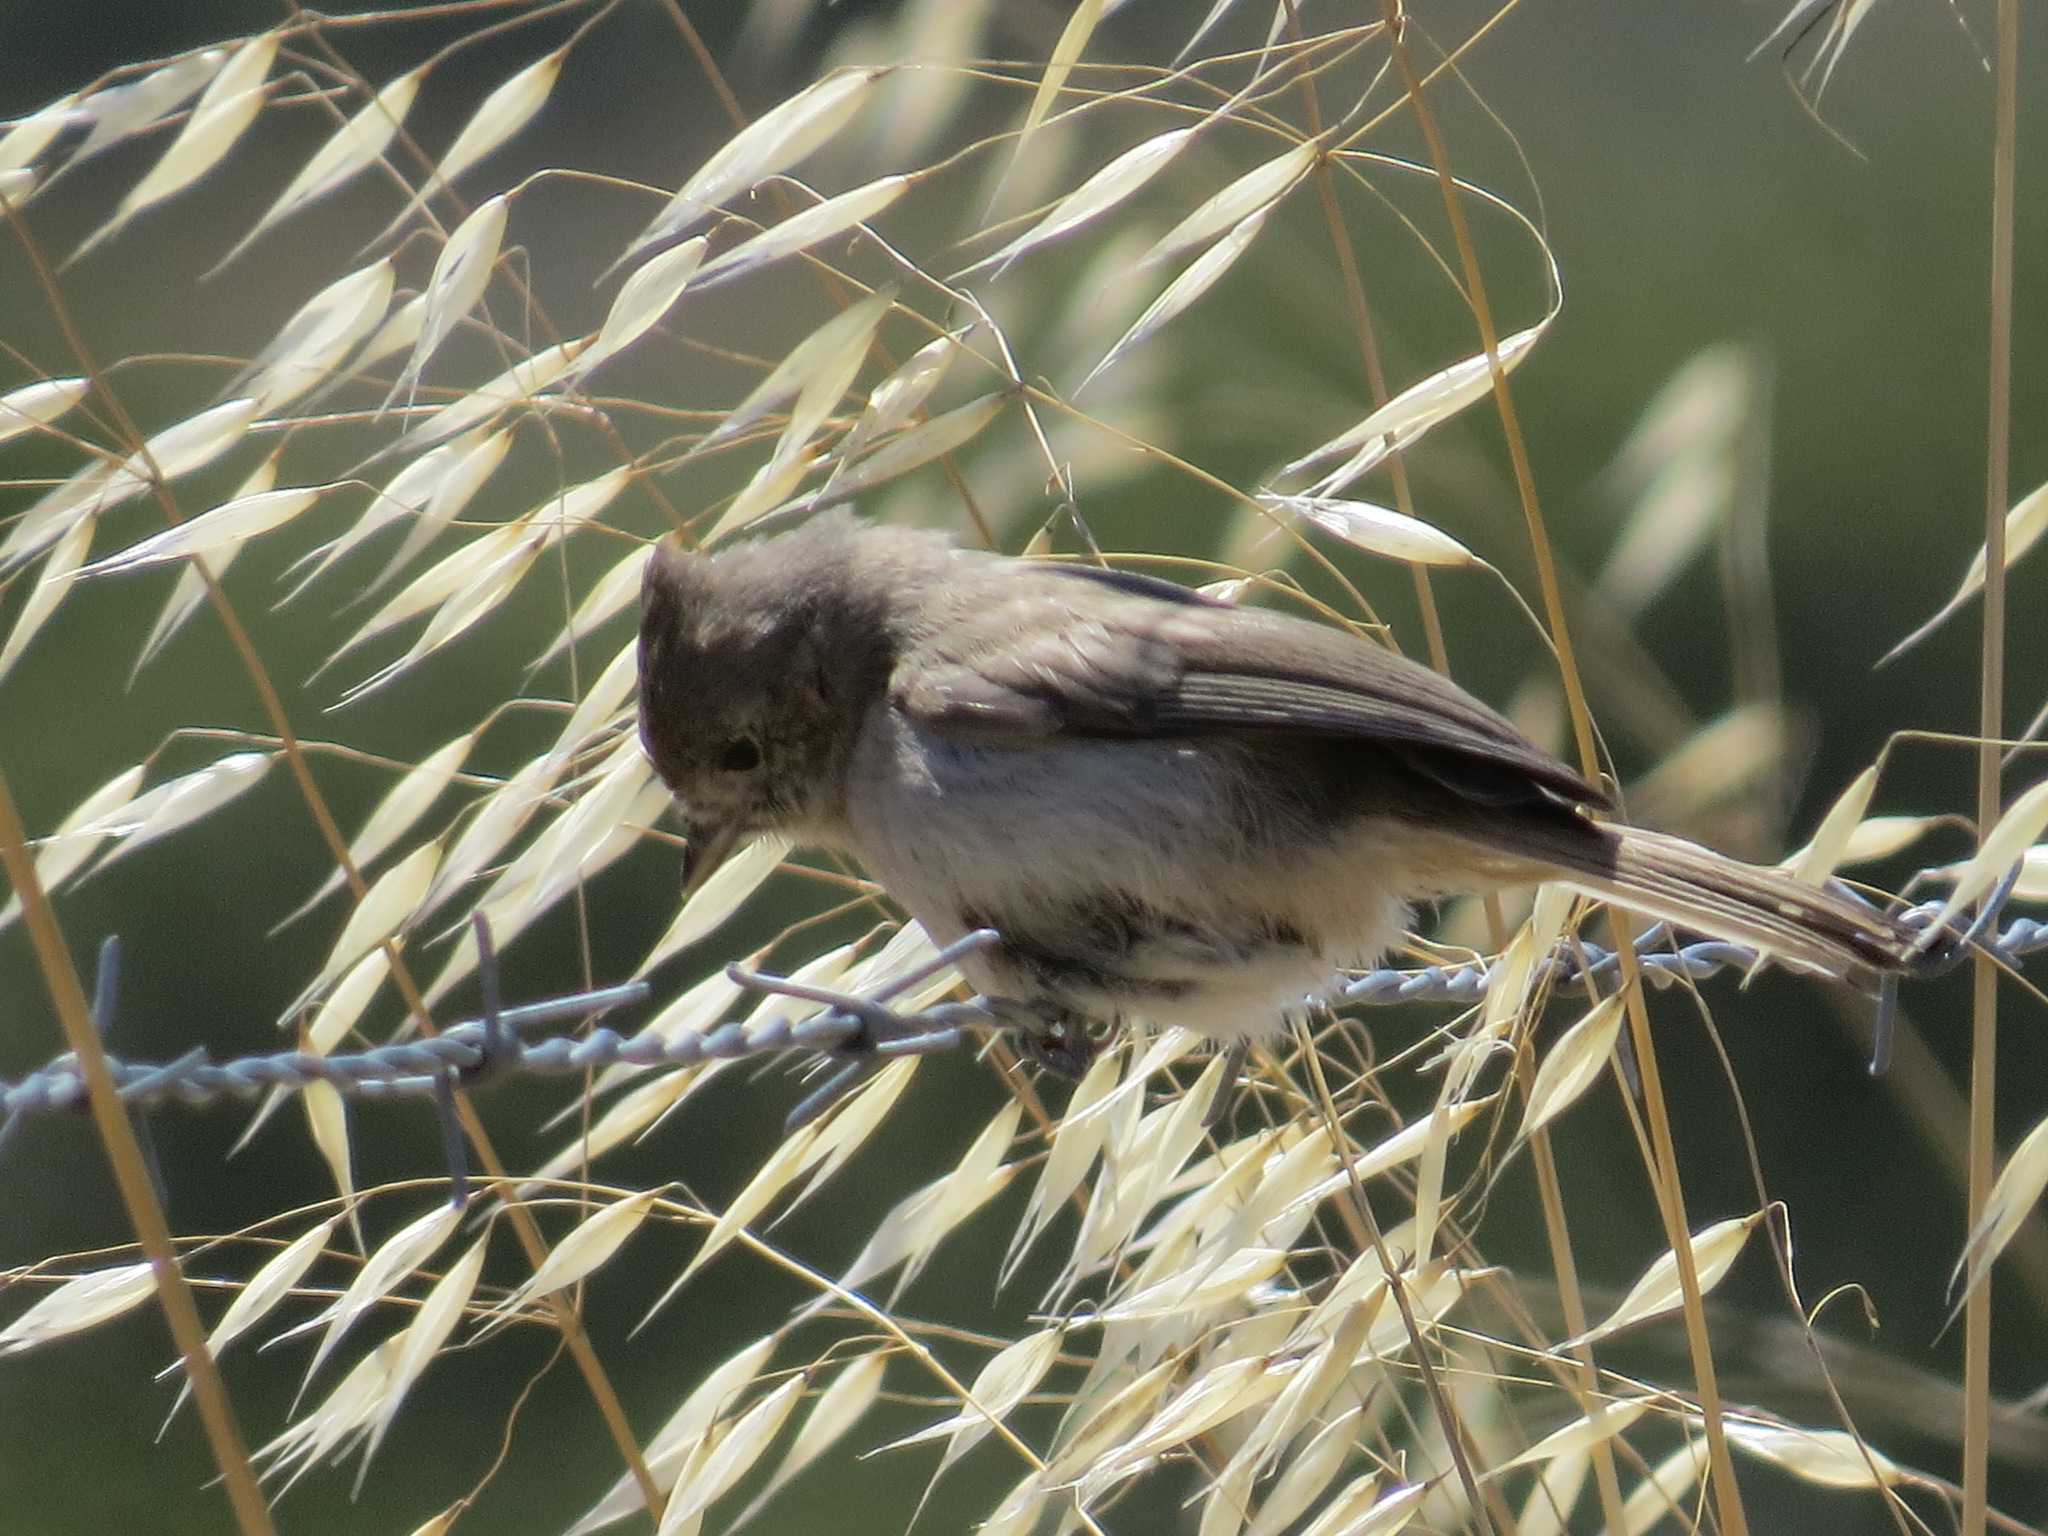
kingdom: Animalia
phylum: Chordata
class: Aves
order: Passeriformes
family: Paridae
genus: Baeolophus
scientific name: Baeolophus inornatus
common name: Oak titmouse
